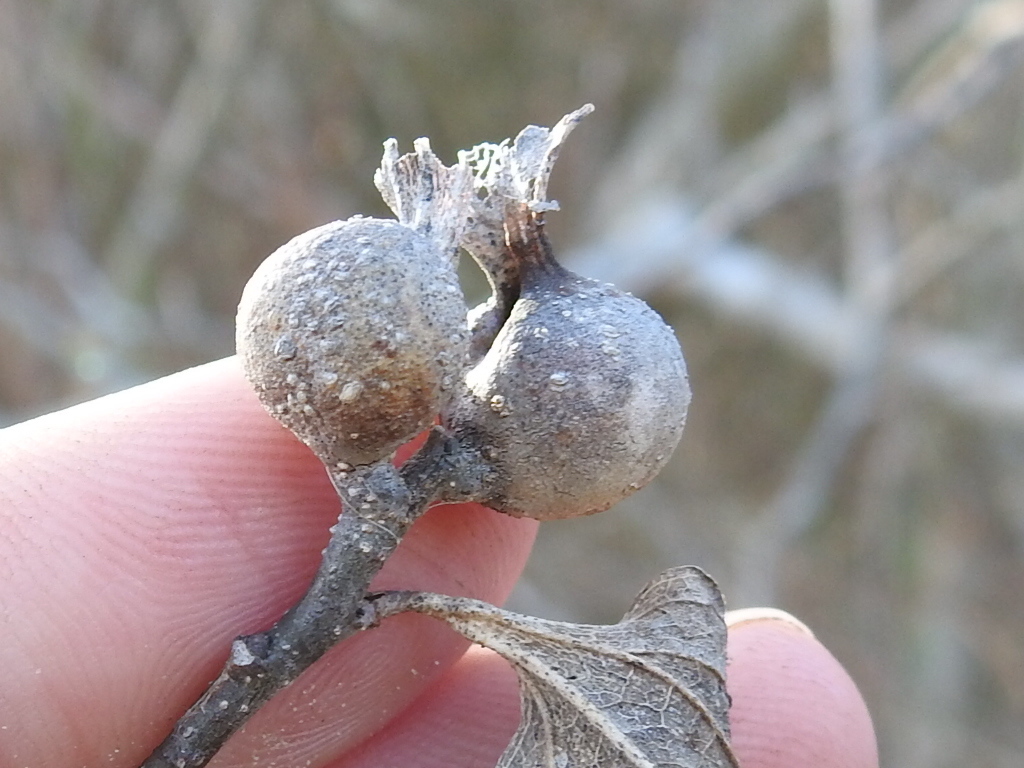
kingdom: Animalia
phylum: Arthropoda
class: Insecta
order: Hemiptera
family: Aphalaridae
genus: Pachypsylla
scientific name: Pachypsylla venusta
